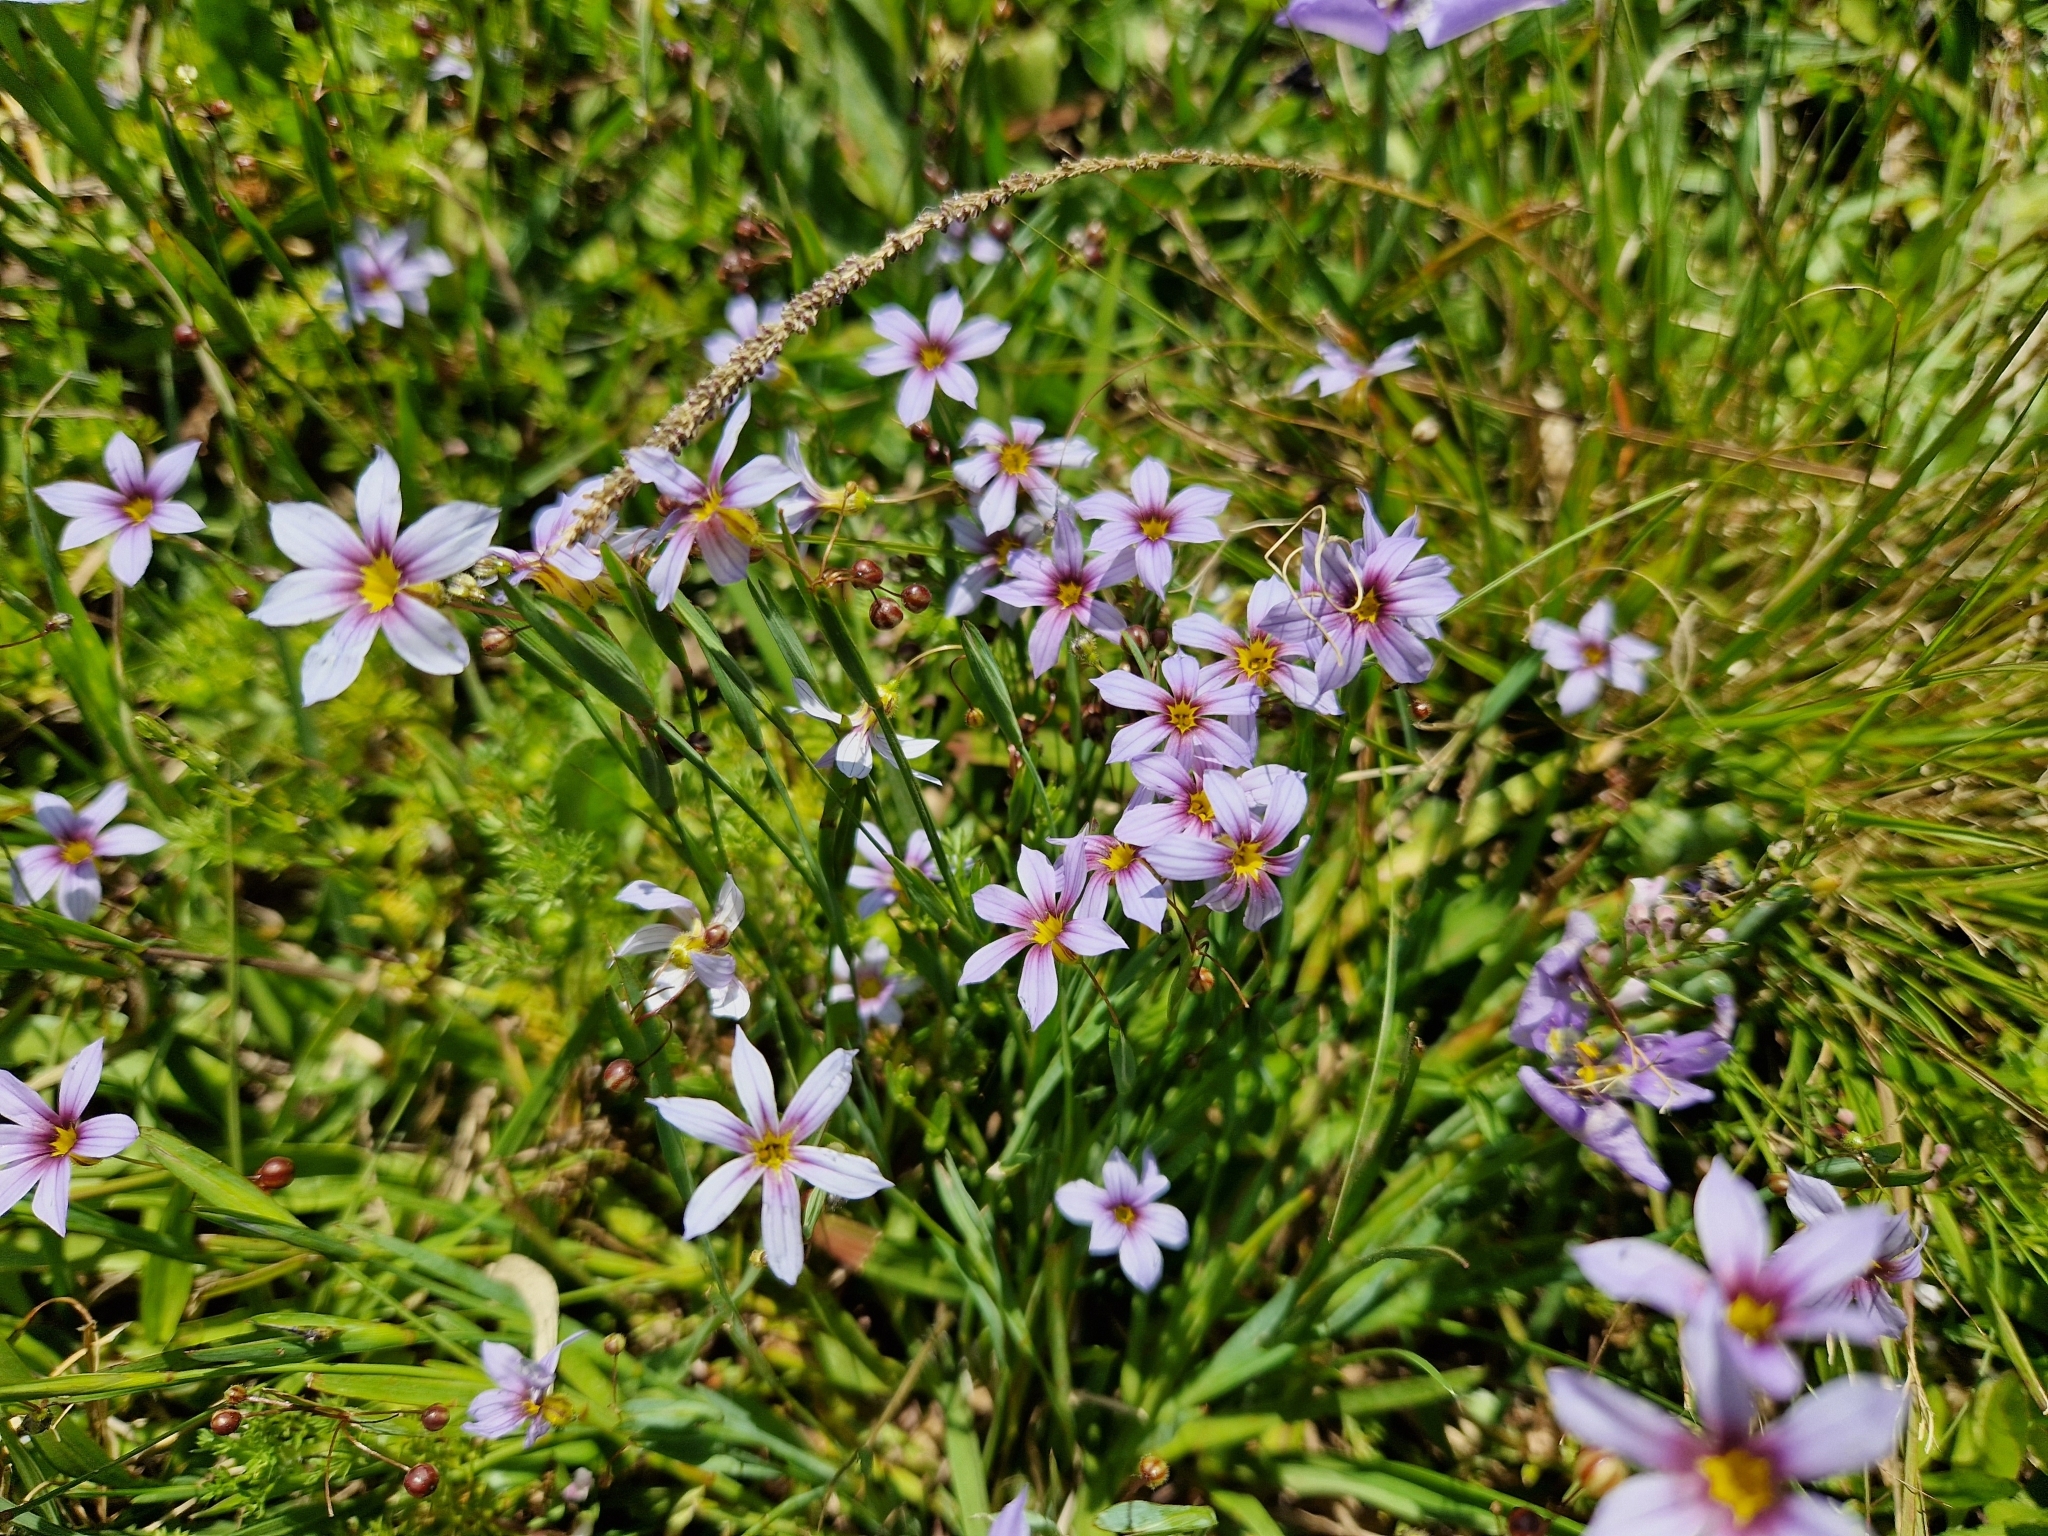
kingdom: Plantae
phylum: Tracheophyta
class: Liliopsida
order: Asparagales
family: Iridaceae
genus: Sisyrinchium
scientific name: Sisyrinchium micranthum
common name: Bermuda pigroot
